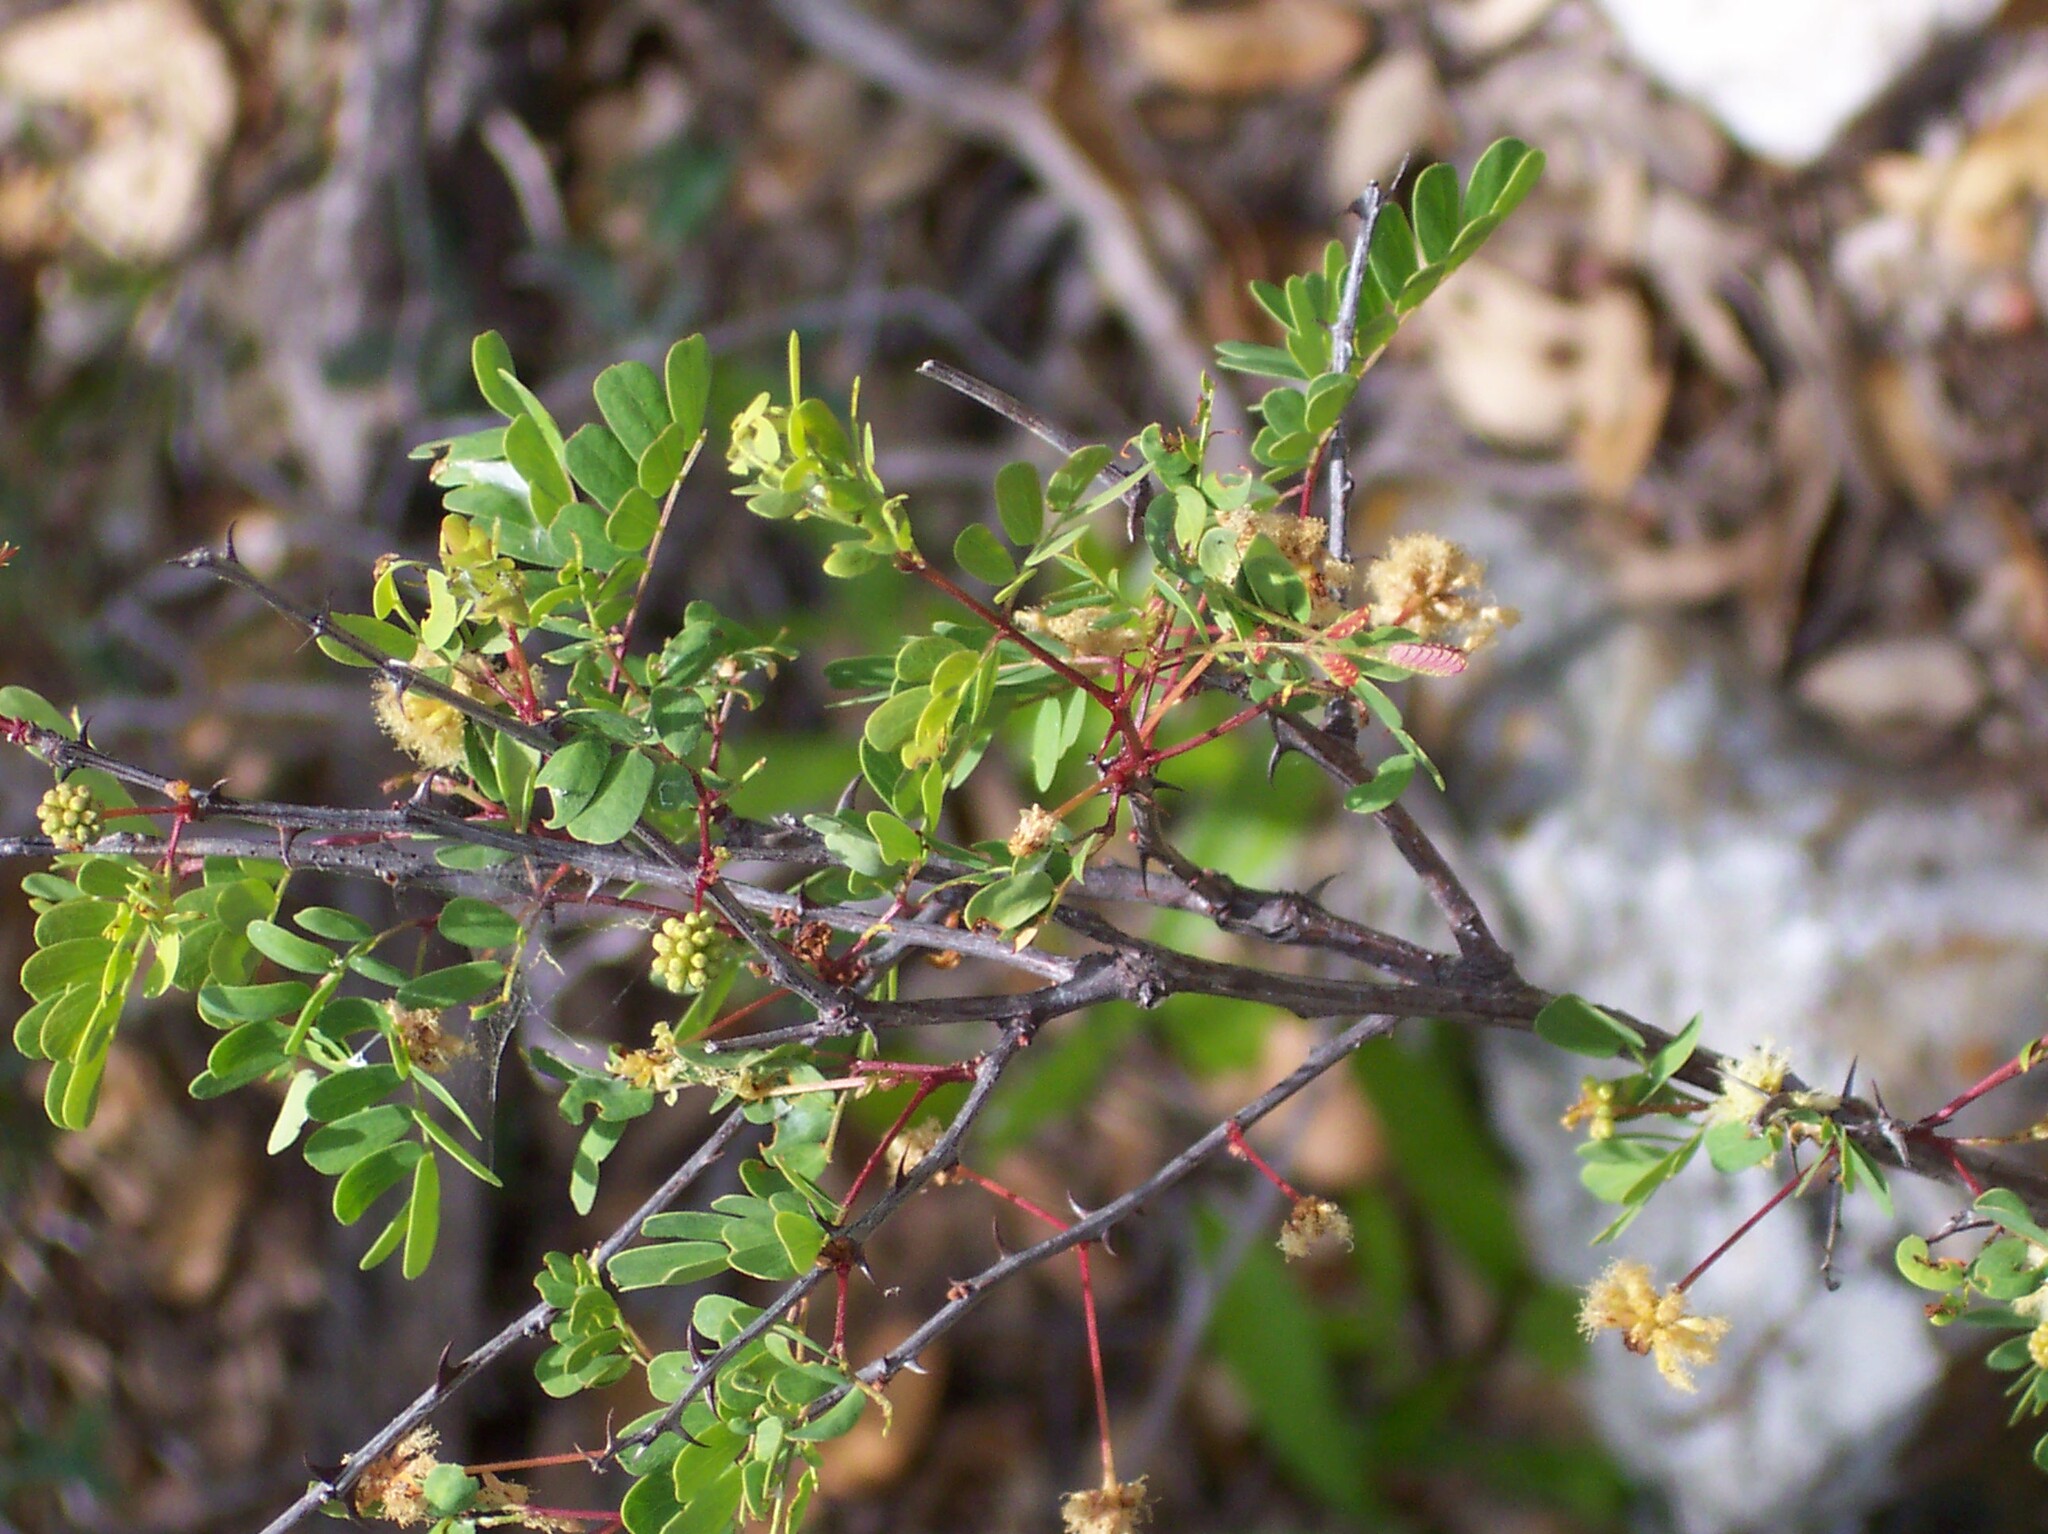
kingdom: Plantae
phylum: Tracheophyta
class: Magnoliopsida
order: Fabales
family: Fabaceae
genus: Senegalia
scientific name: Senegalia roemeriana
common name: Roemer's acacia
